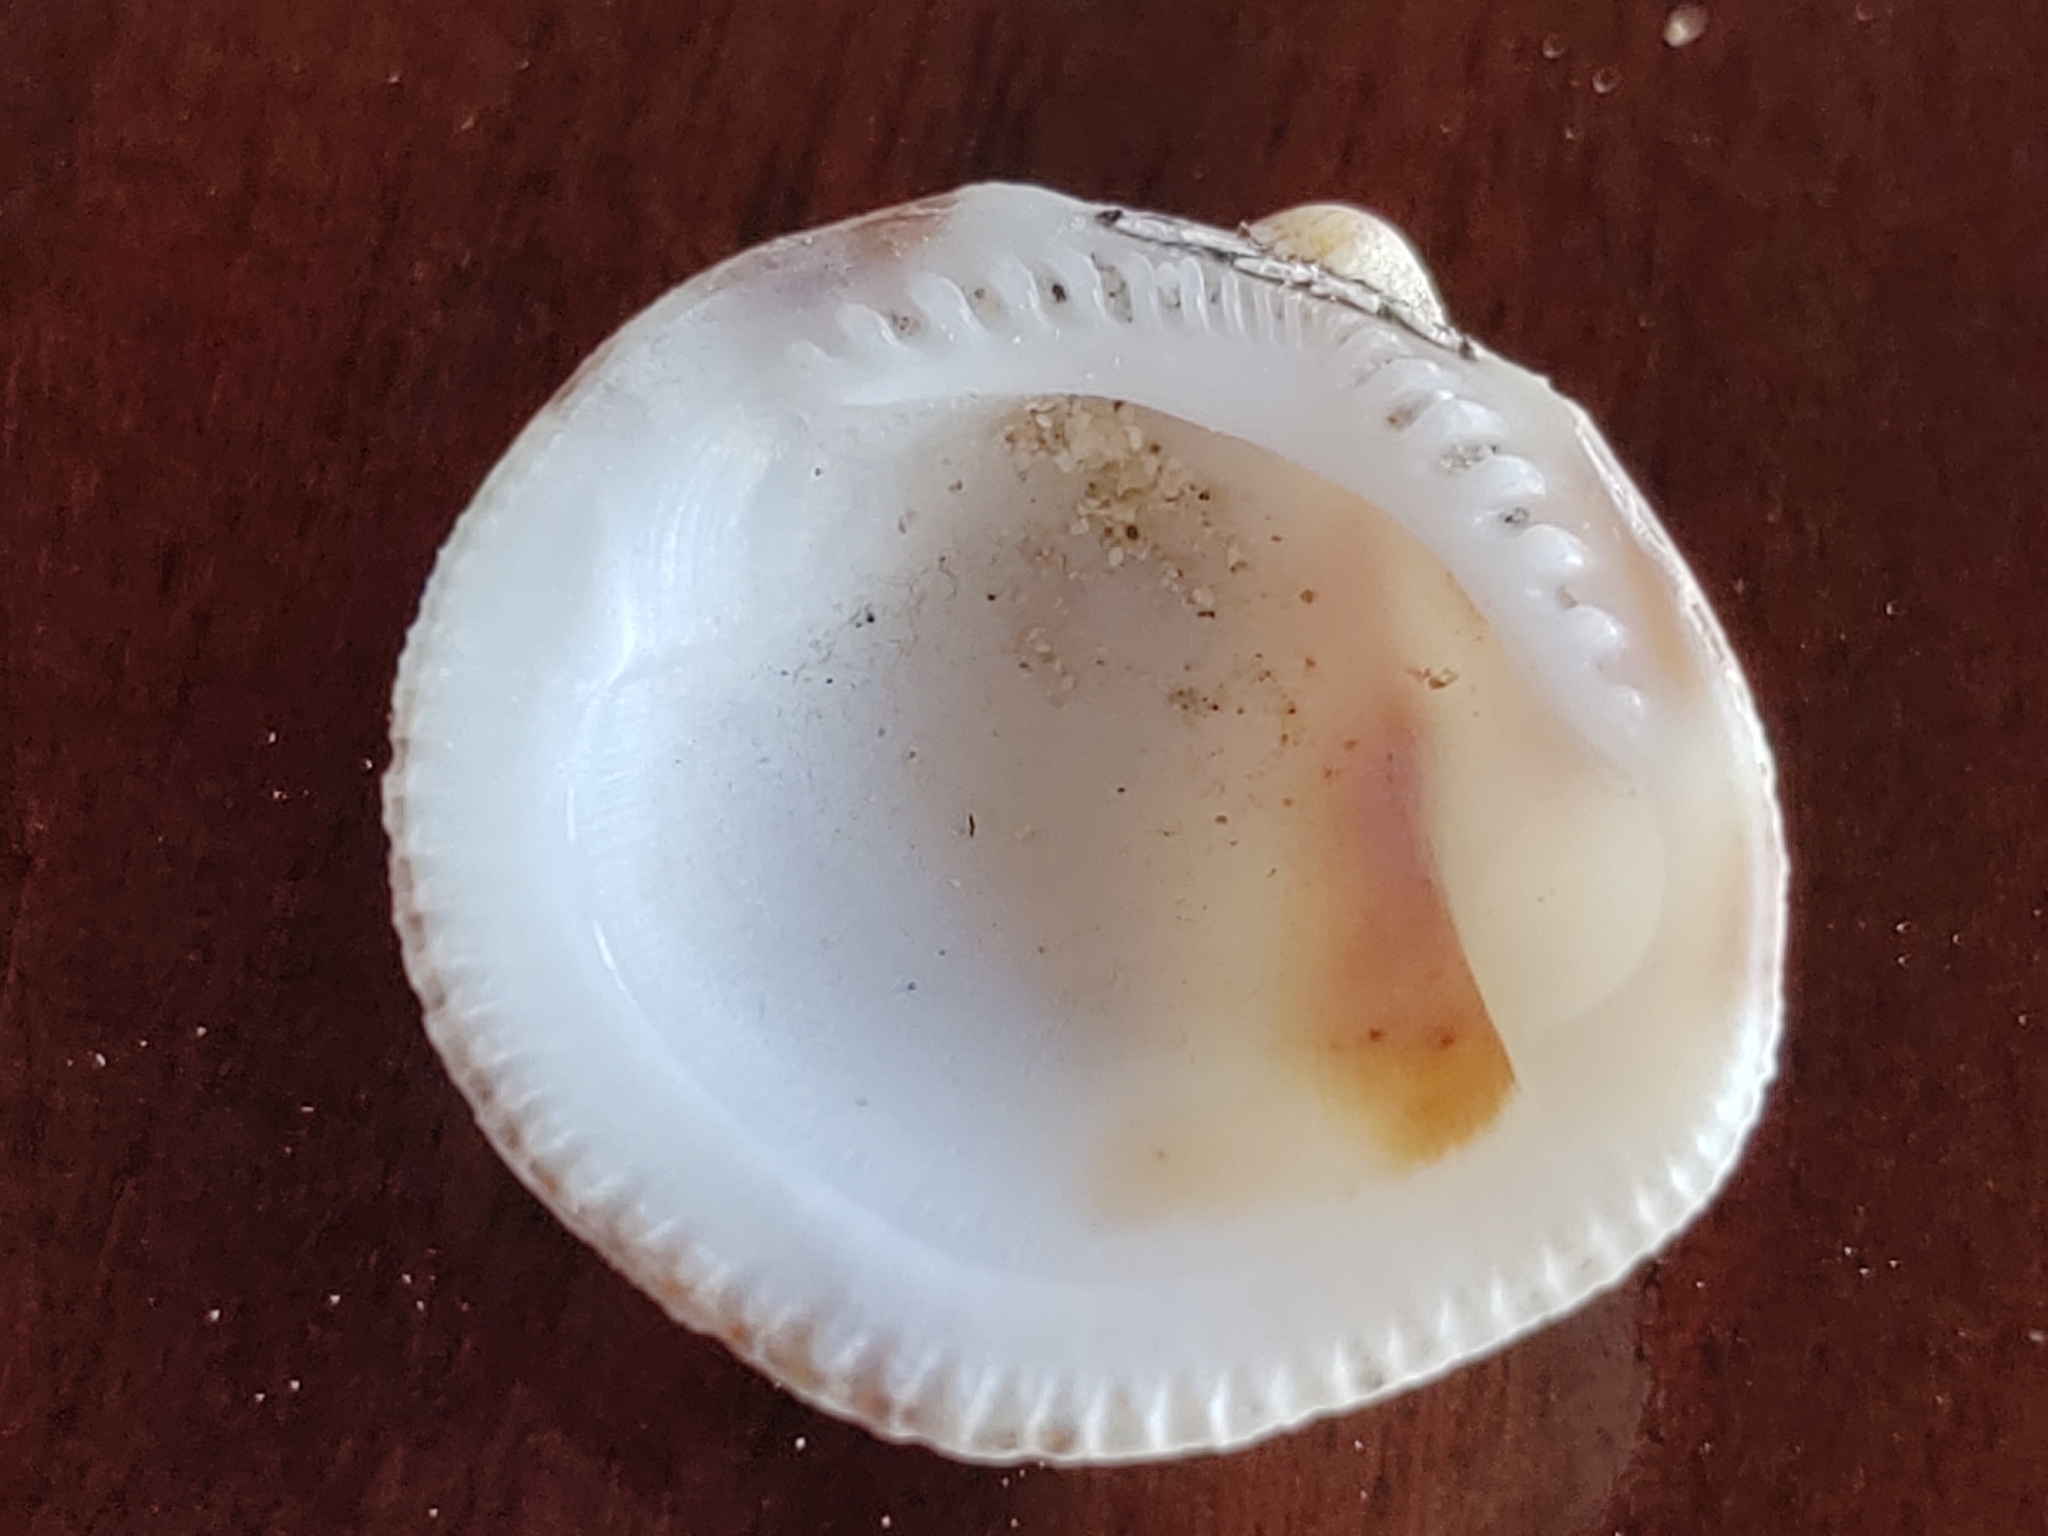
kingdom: Animalia
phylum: Mollusca
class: Bivalvia
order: Arcida
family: Glycymerididae
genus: Glycymeris
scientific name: Glycymeris undata
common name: Atlantic bittersweet
